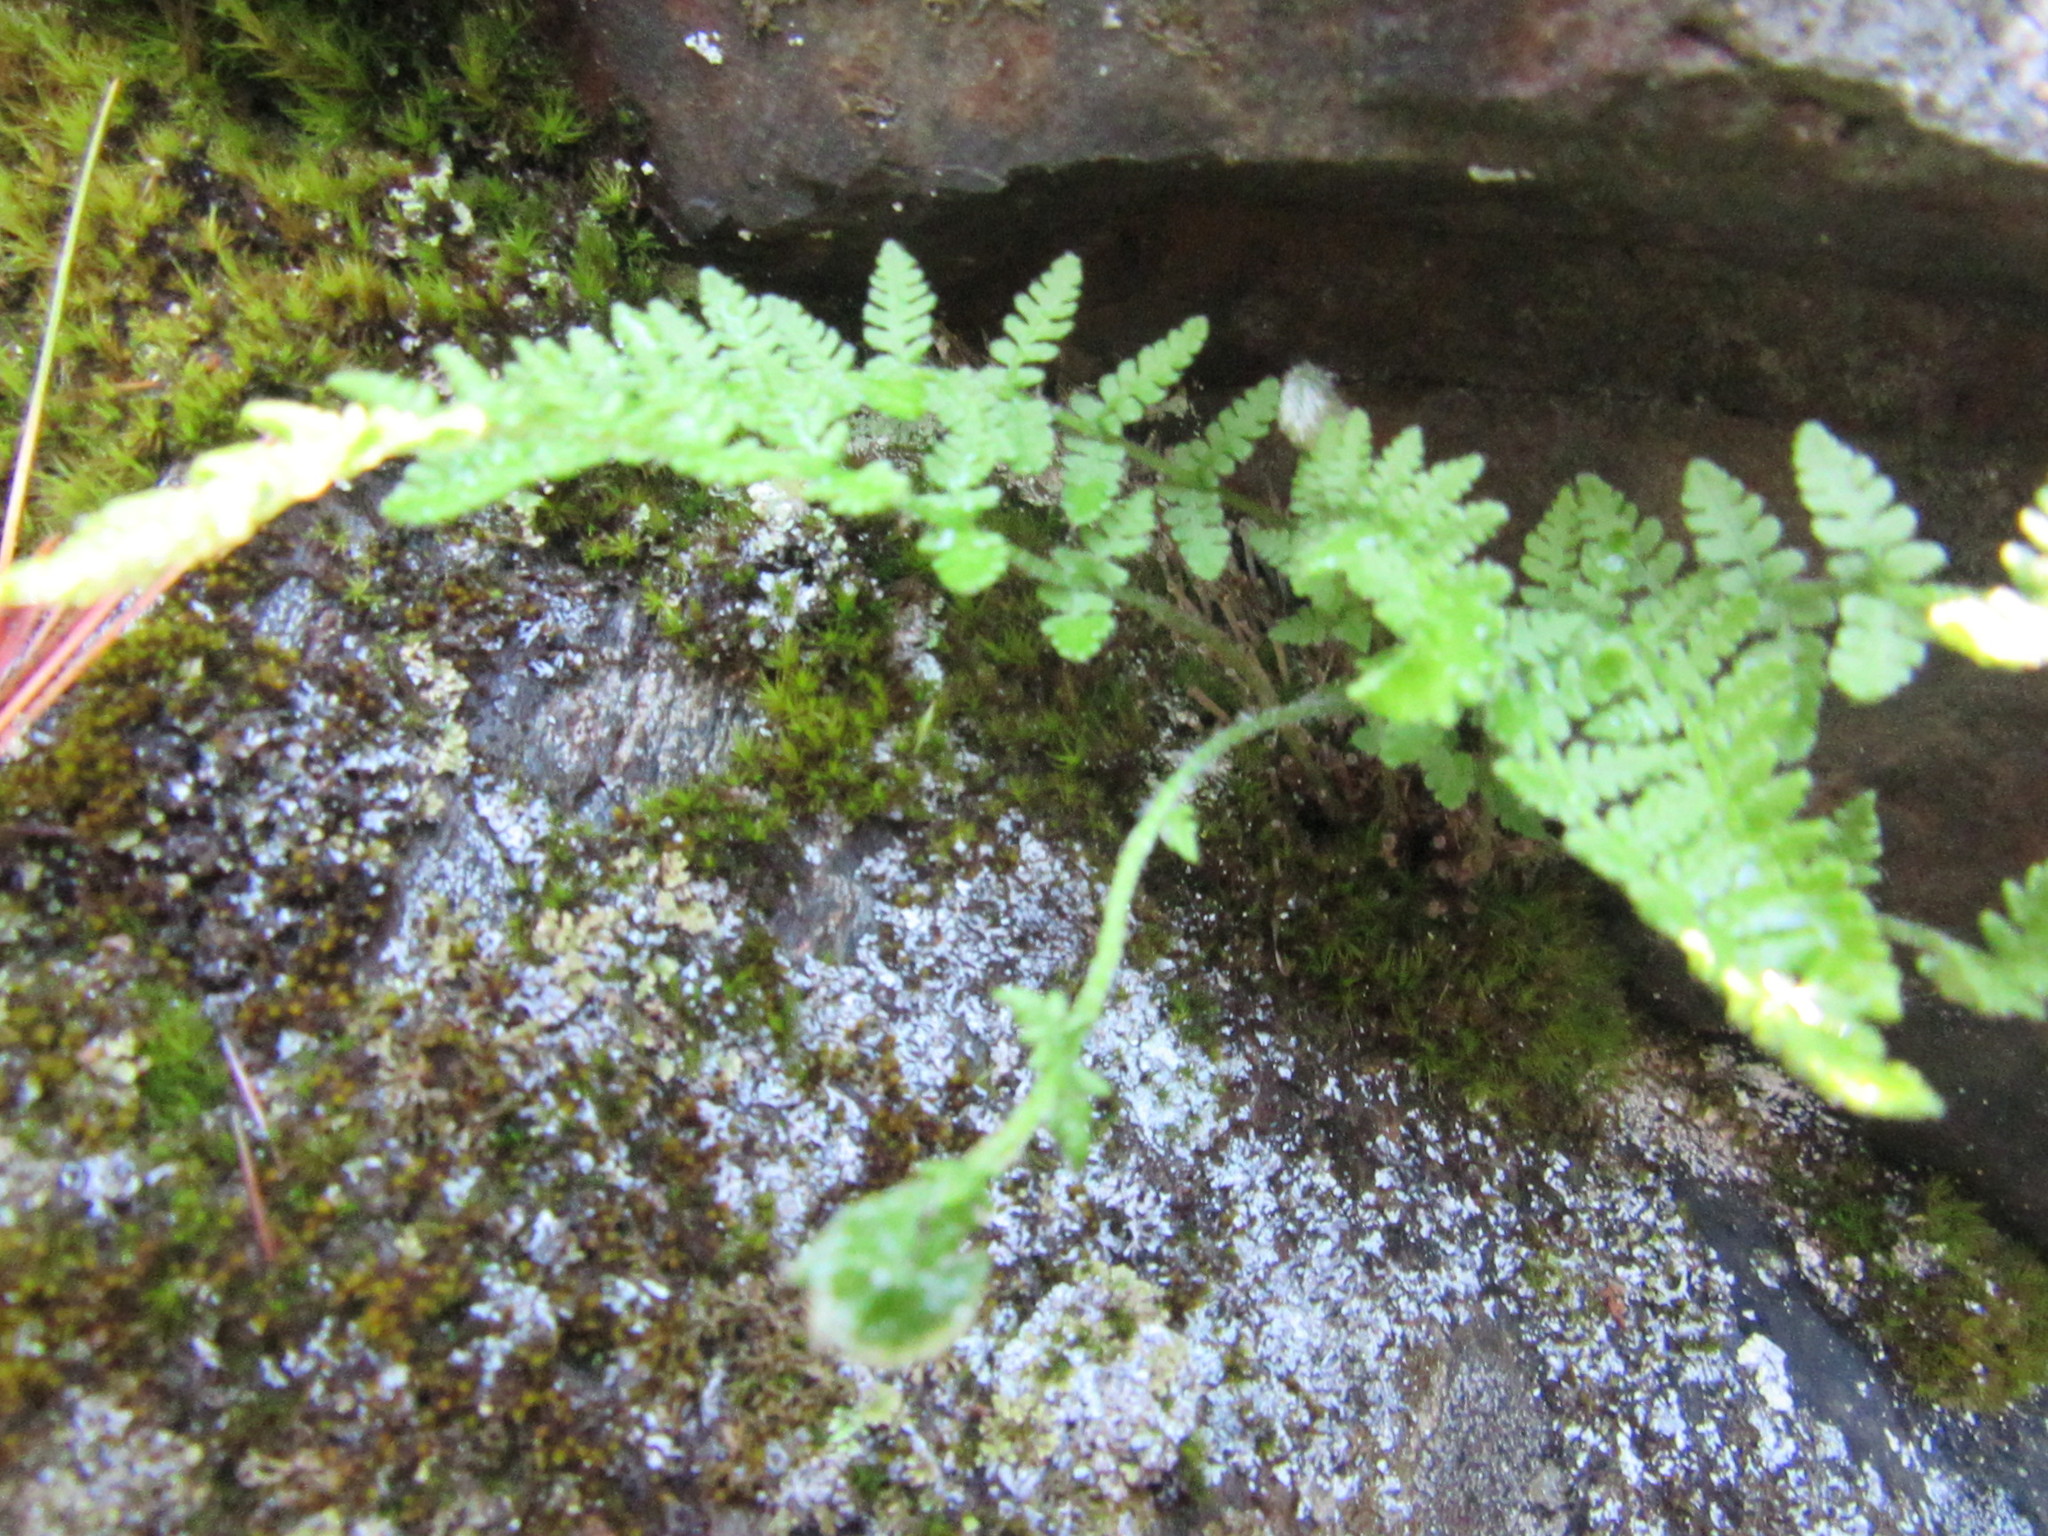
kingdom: Plantae
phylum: Tracheophyta
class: Polypodiopsida
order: Polypodiales
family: Woodsiaceae
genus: Woodsia
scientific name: Woodsia ilvensis
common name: Fragrant woodsia
